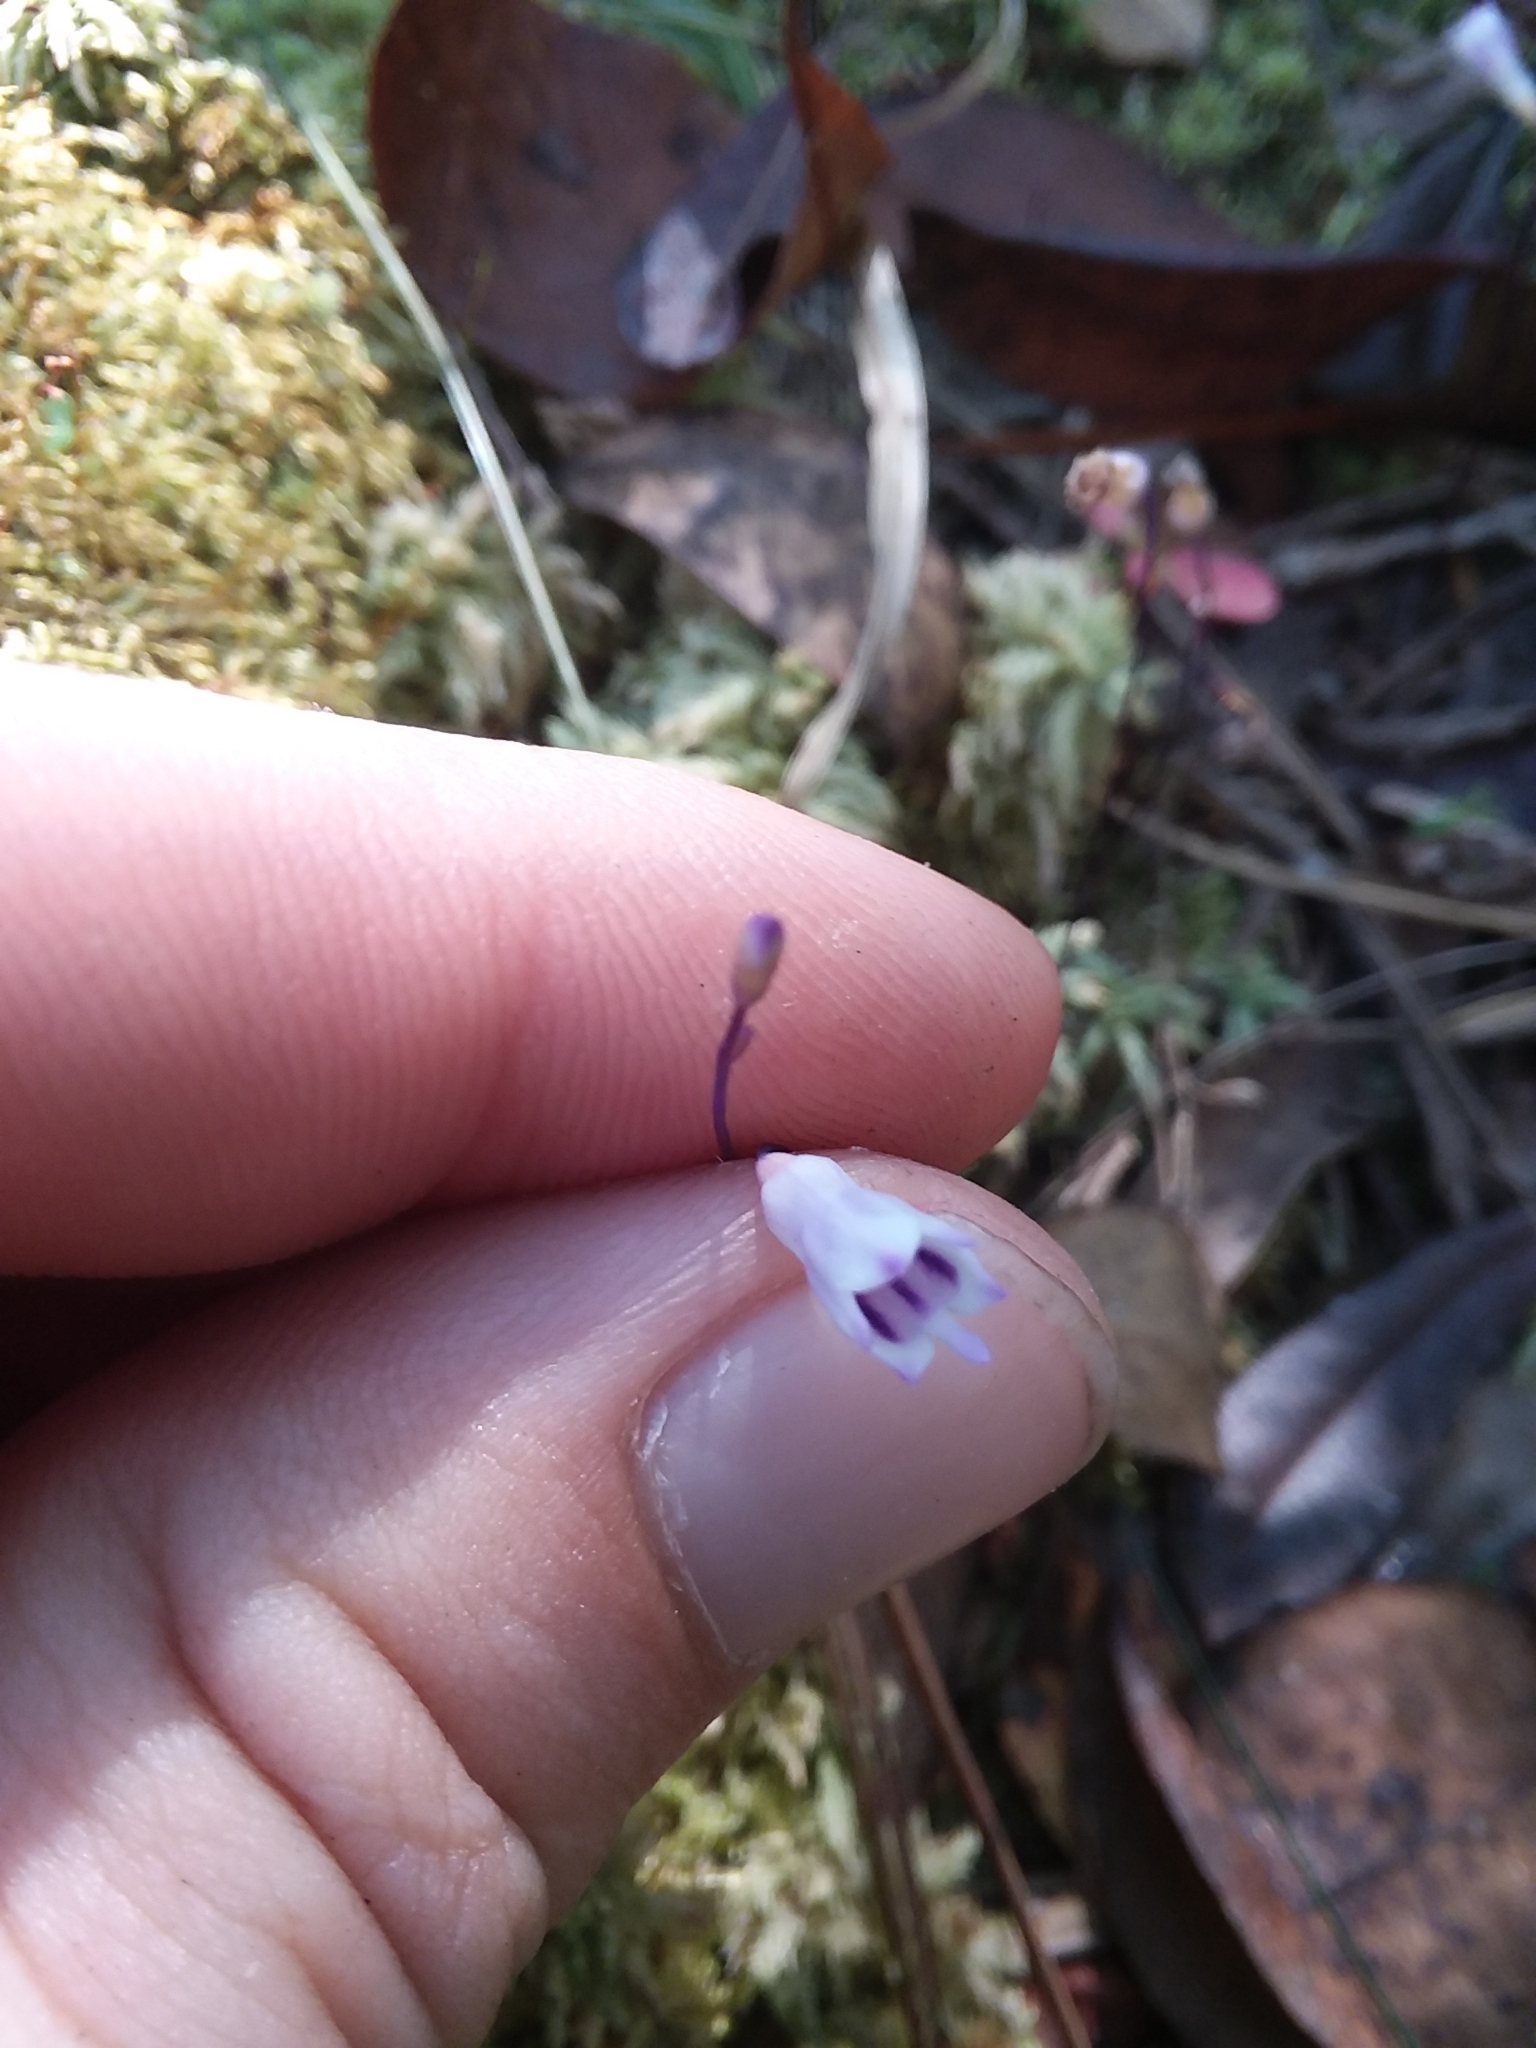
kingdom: Plantae
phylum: Tracheophyta
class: Liliopsida
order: Dioscoreales
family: Burmanniaceae
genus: Apteria
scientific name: Apteria aphylla
